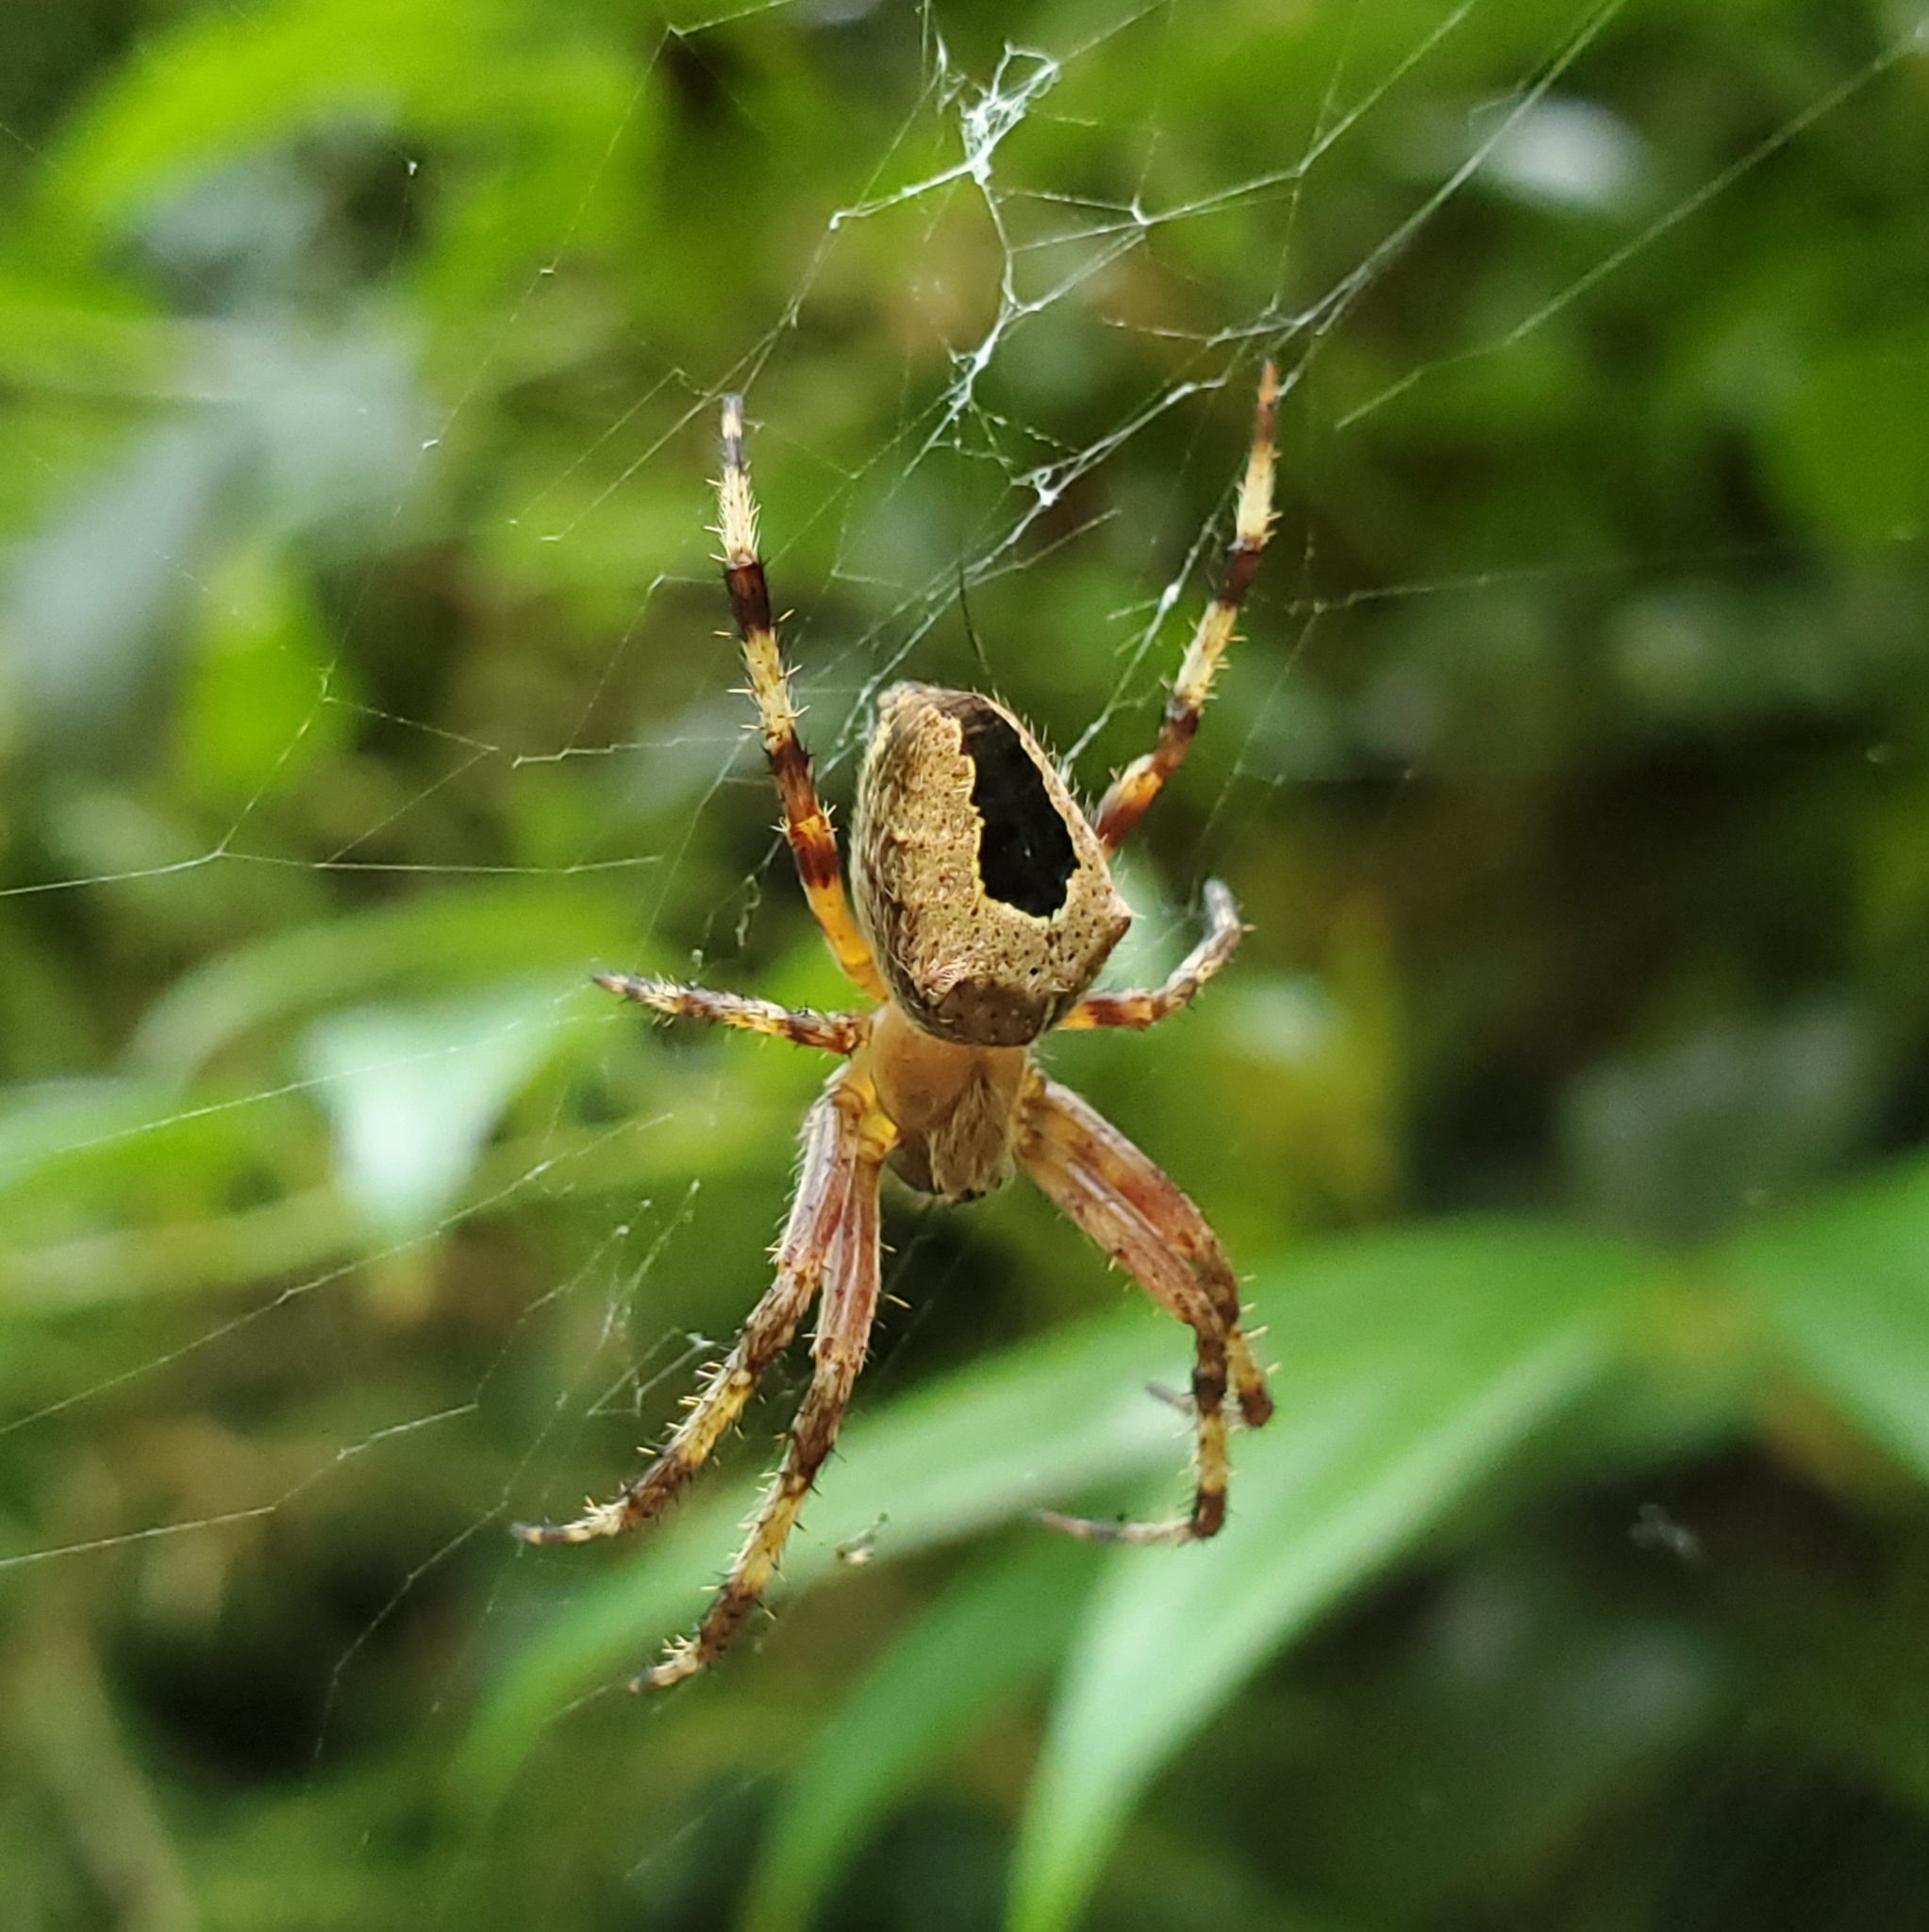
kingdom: Animalia
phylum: Arthropoda
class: Arachnida
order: Araneae
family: Araneidae
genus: Araneus
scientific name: Araneus nordmanni
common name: Nordmann's orbweaver
